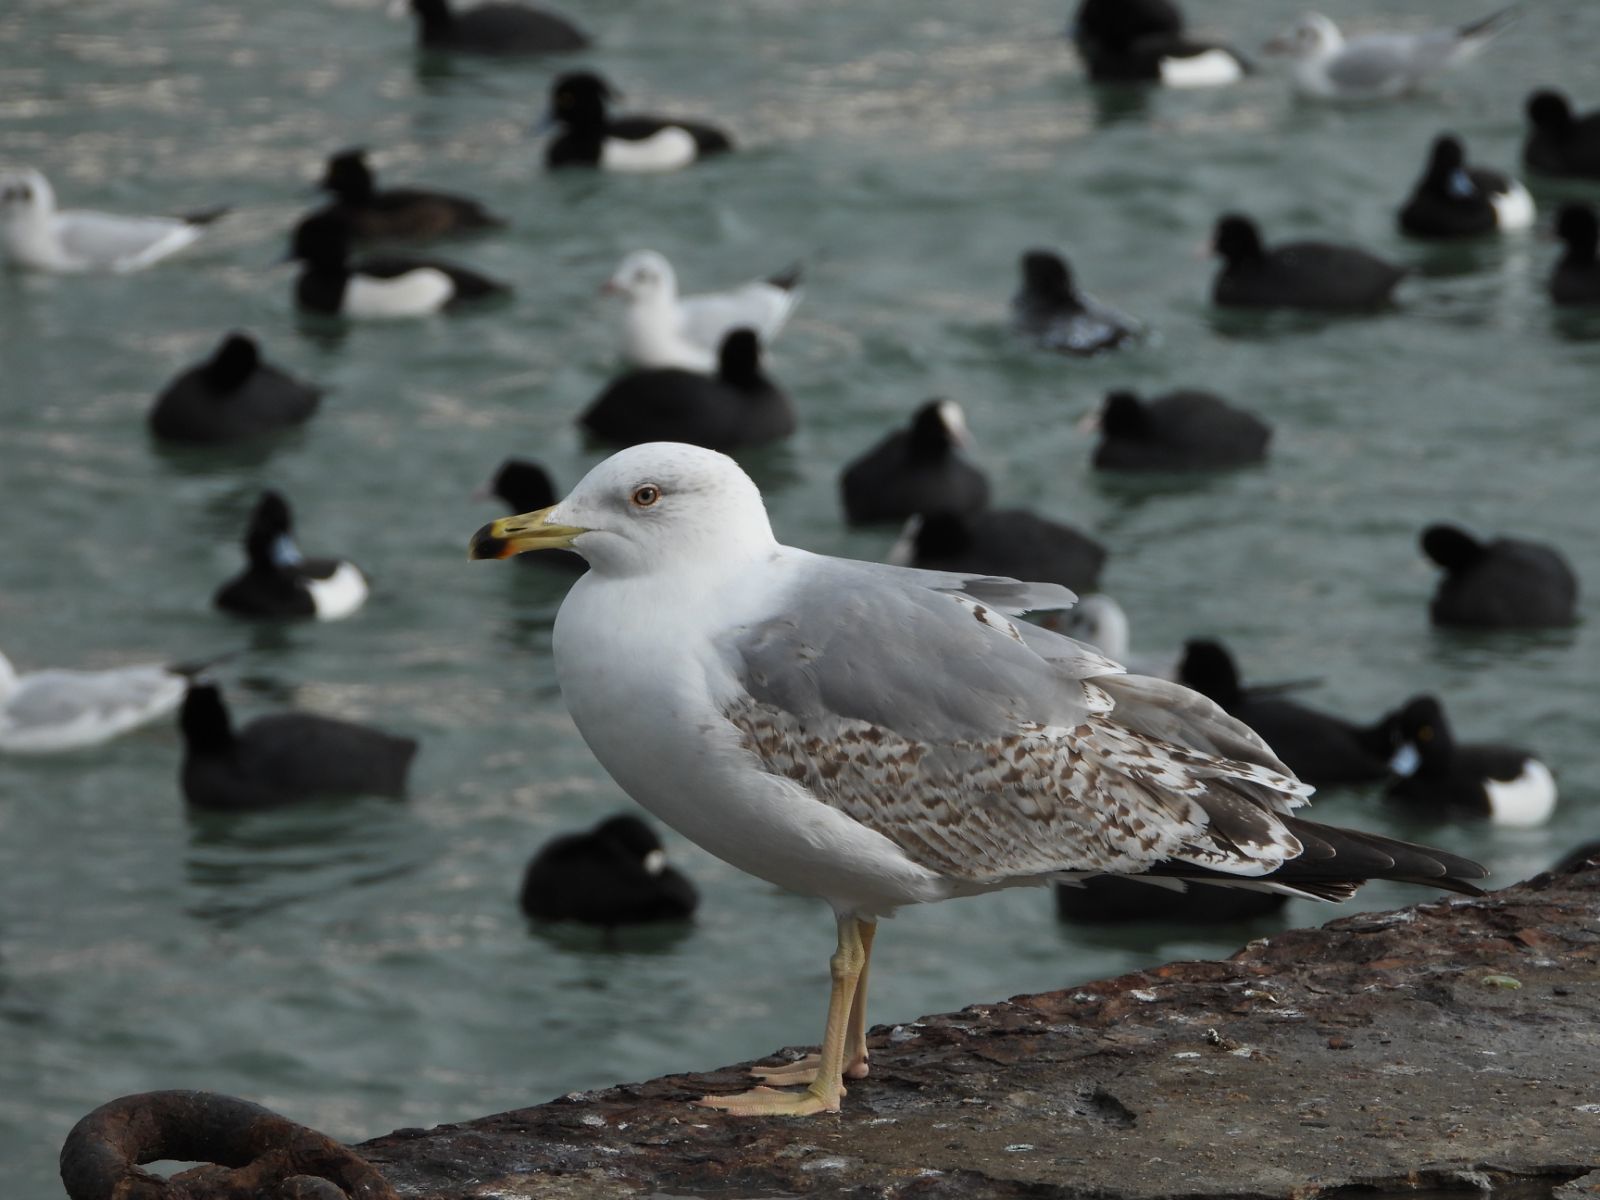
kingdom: Animalia
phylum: Chordata
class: Aves
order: Charadriiformes
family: Laridae
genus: Larus
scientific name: Larus michahellis
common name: Yellow-legged gull
